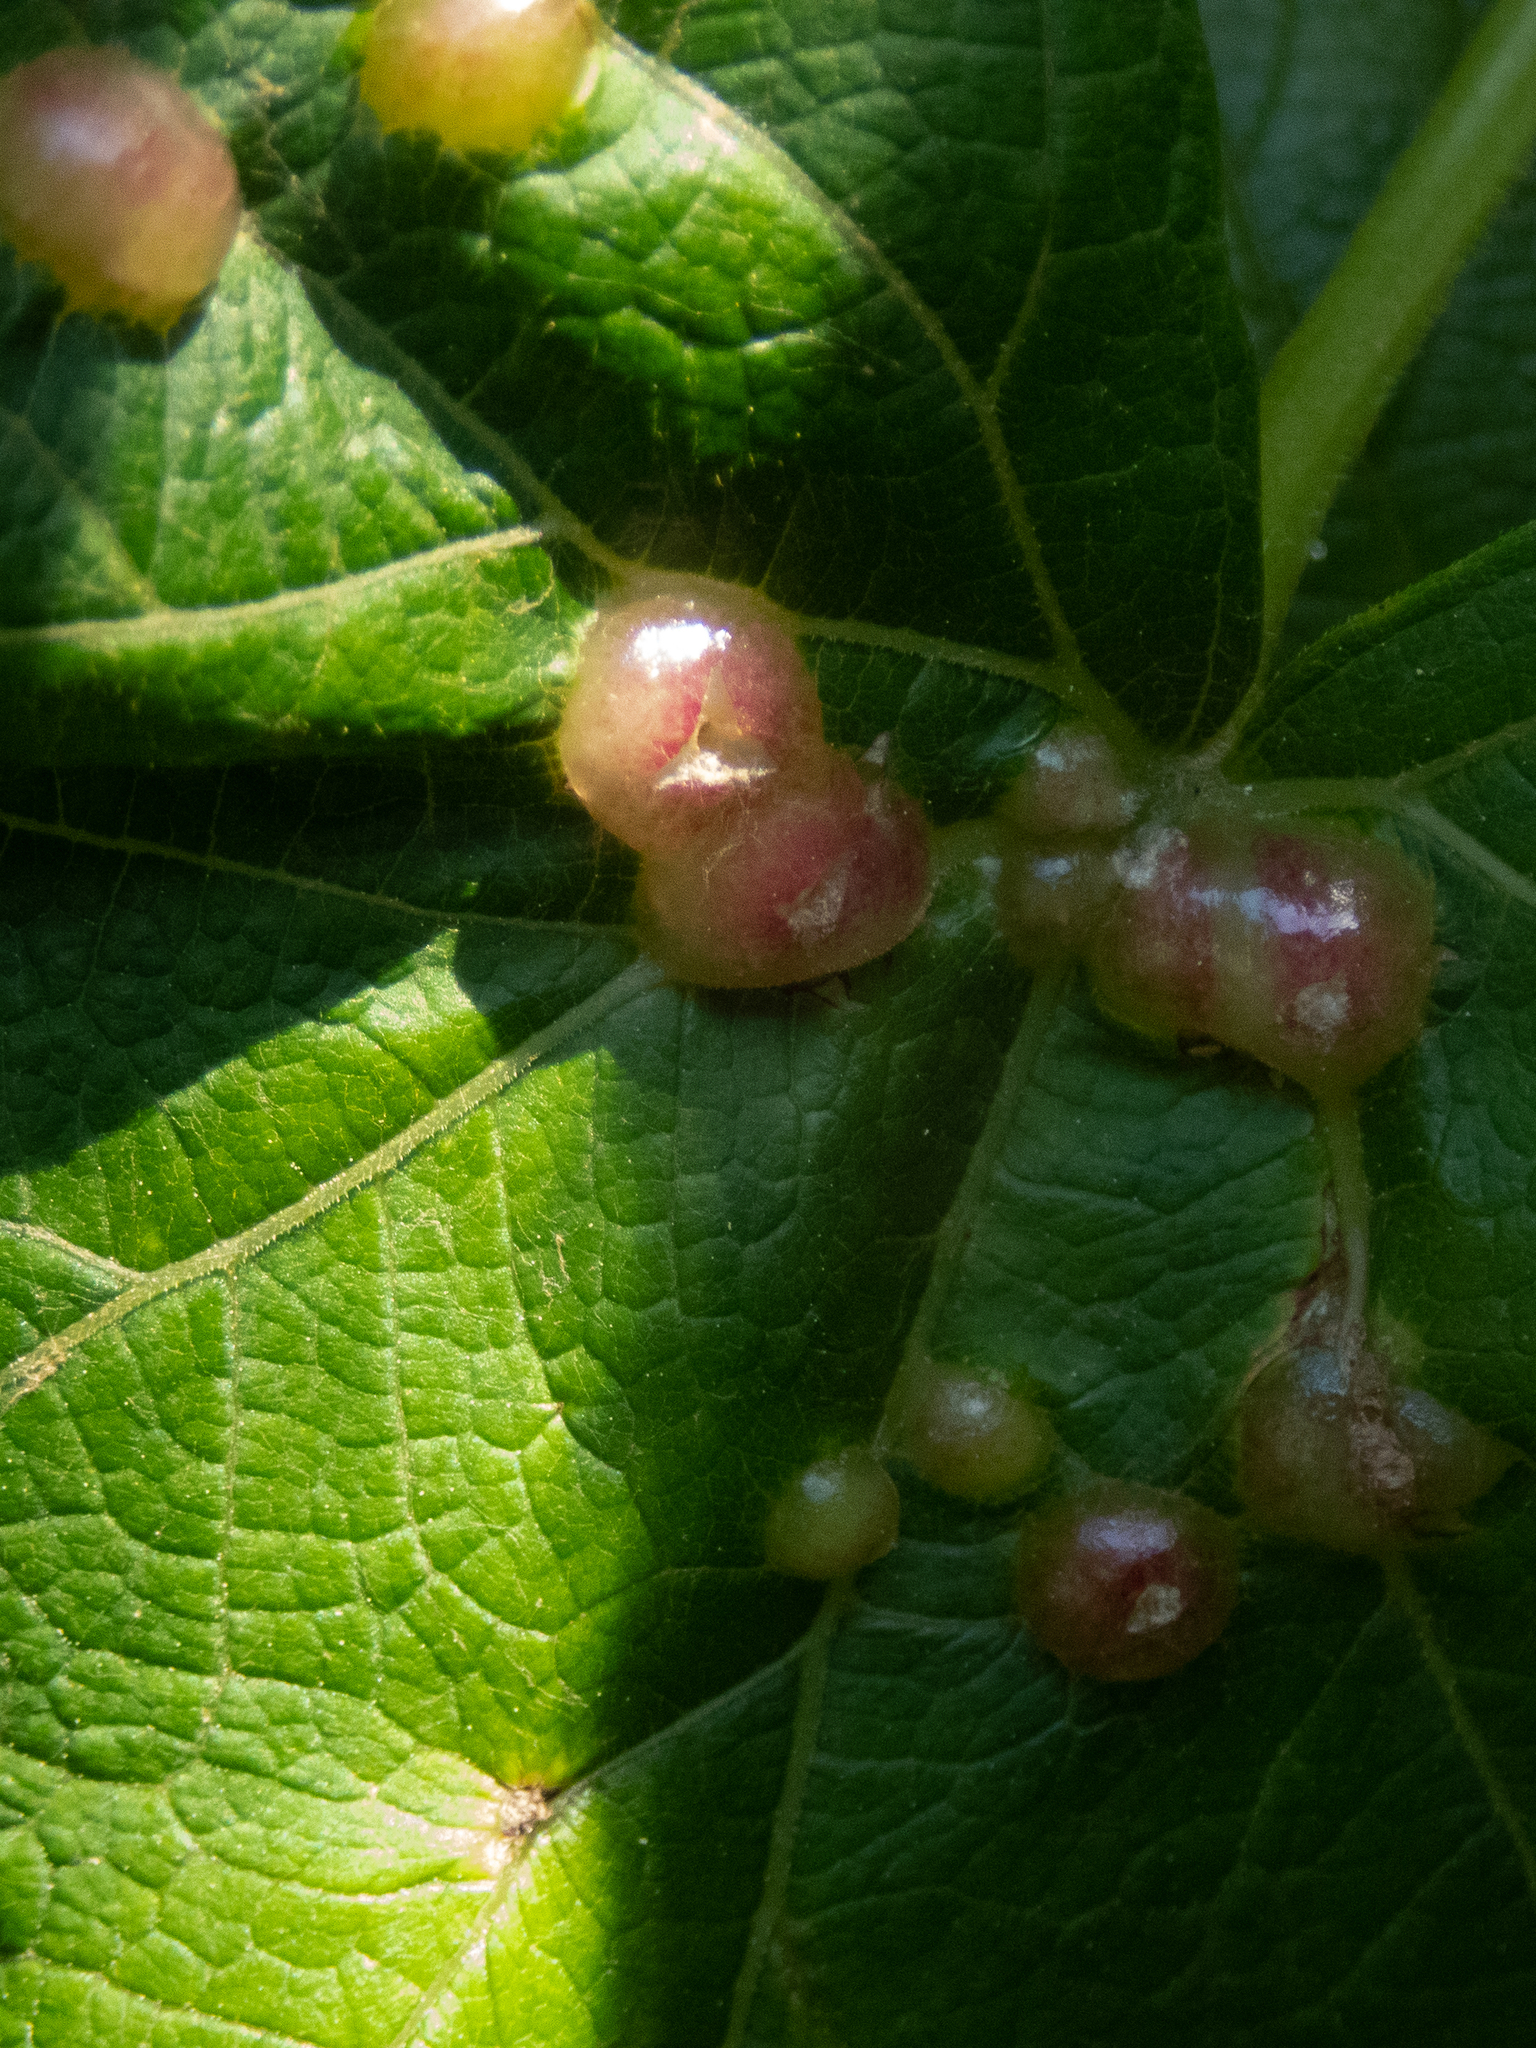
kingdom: Animalia
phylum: Arthropoda
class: Insecta
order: Diptera
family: Cecidomyiidae
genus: Vitisiella
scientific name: Vitisiella brevicauda
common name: Grape tumid gallmaker midge
